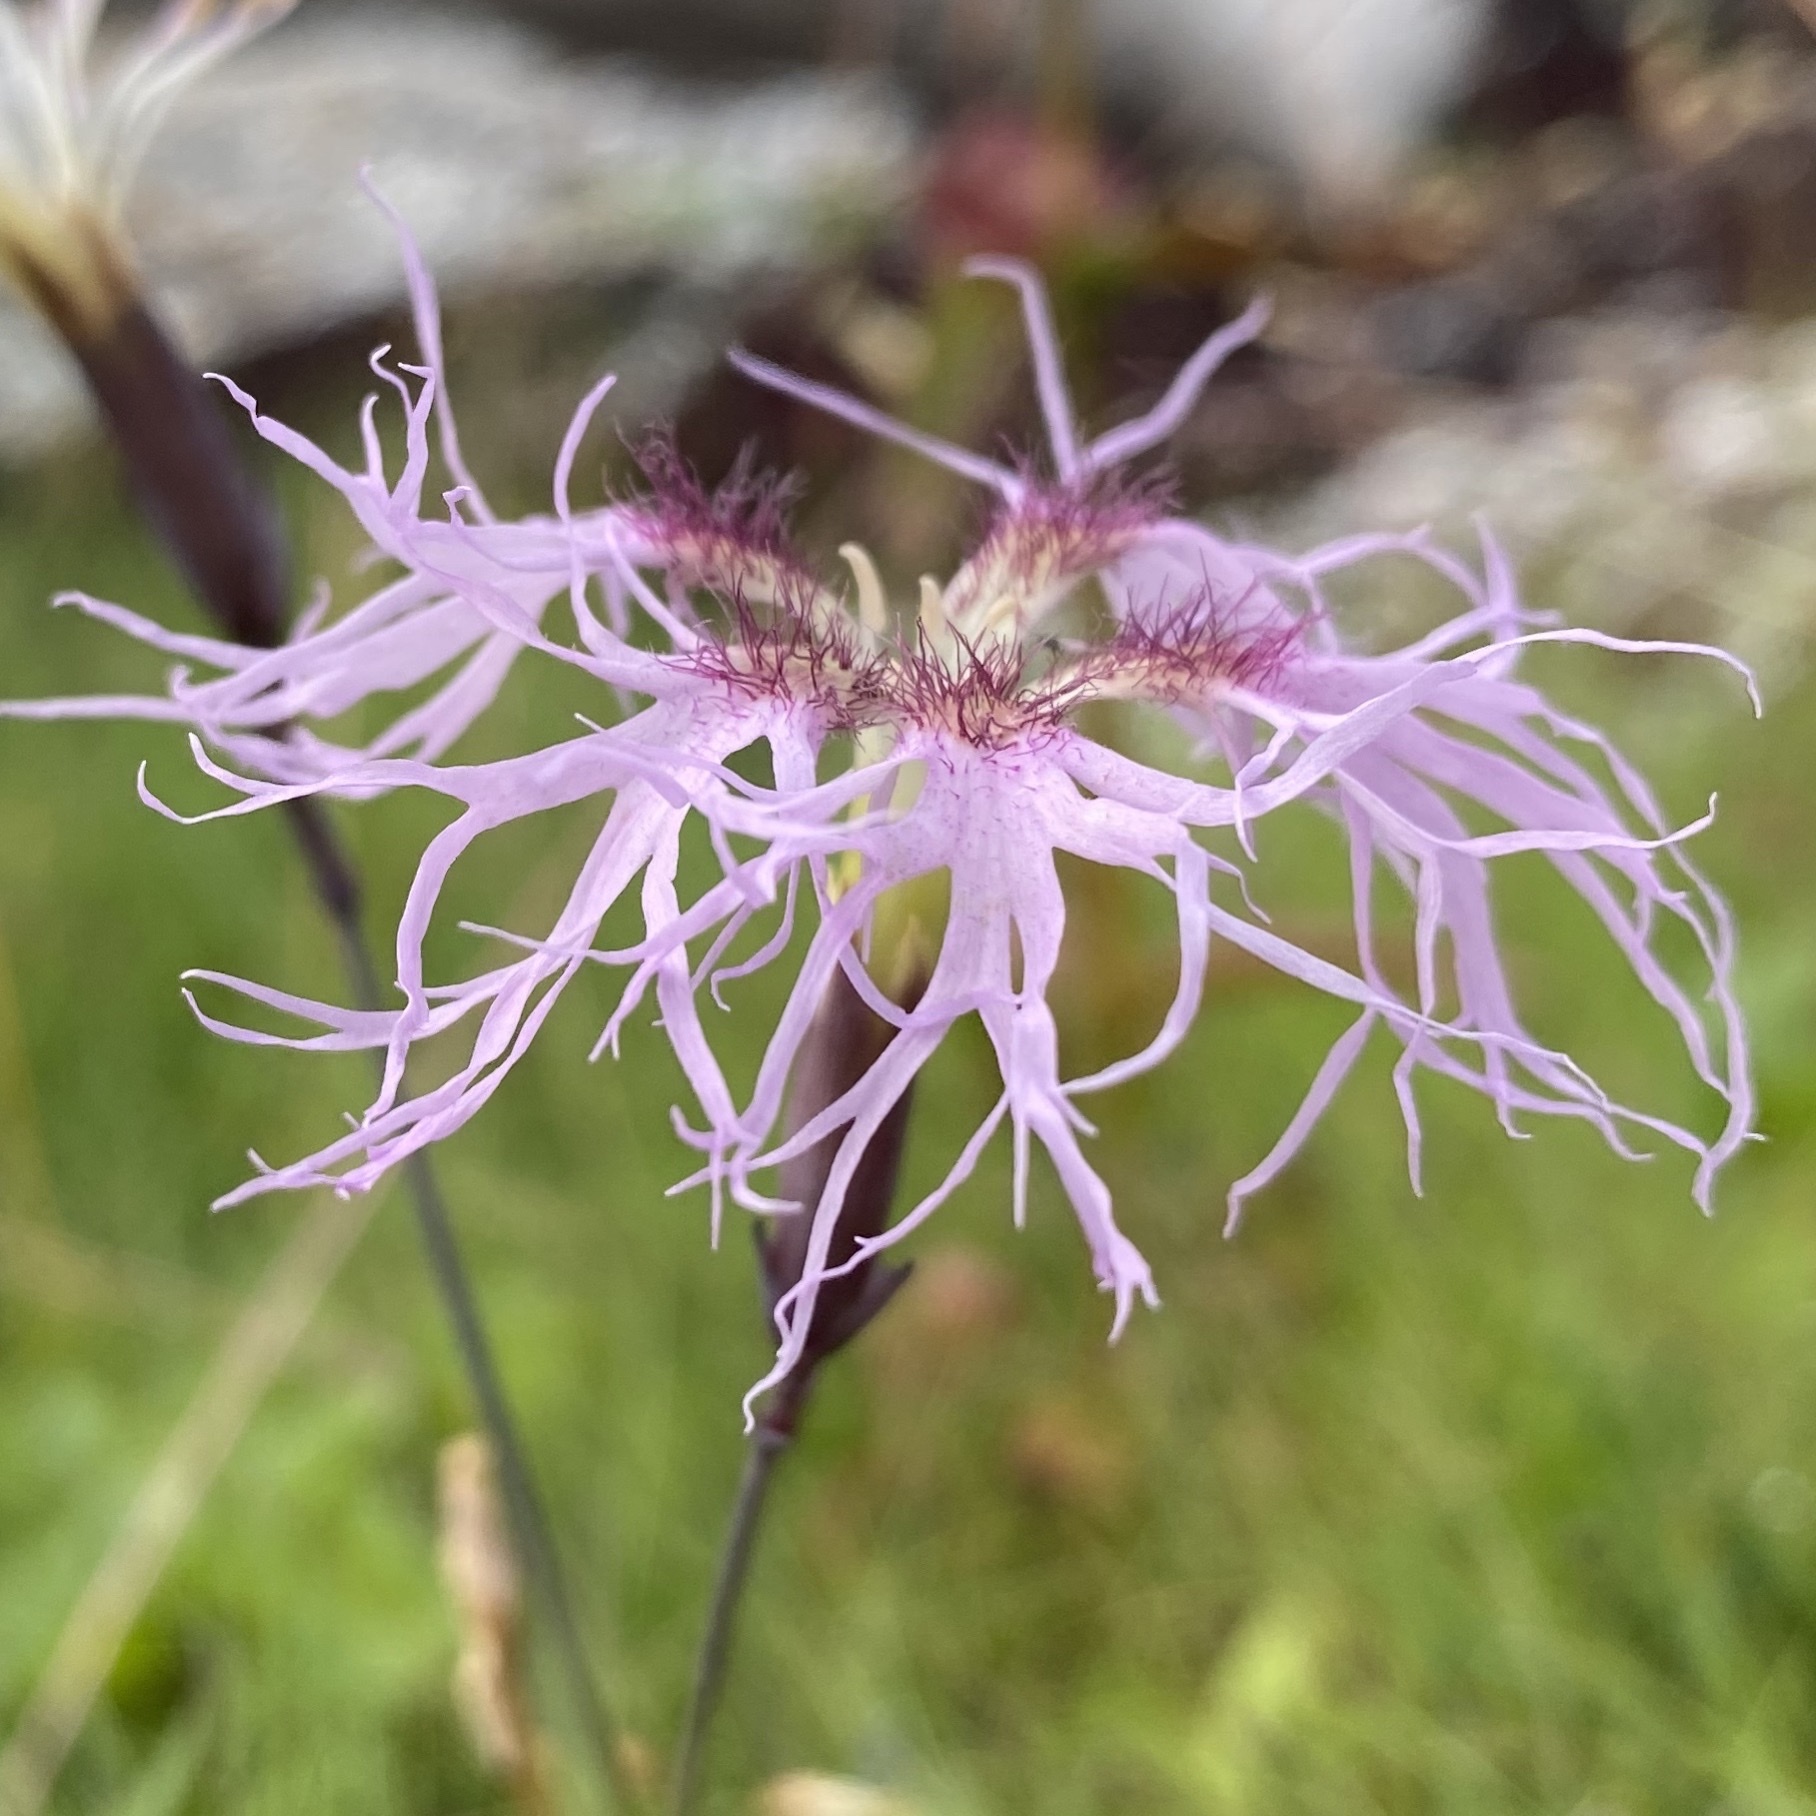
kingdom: Plantae
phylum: Tracheophyta
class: Magnoliopsida
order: Caryophyllales
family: Caryophyllaceae
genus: Dianthus
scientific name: Dianthus superbus
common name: Fringed pink
